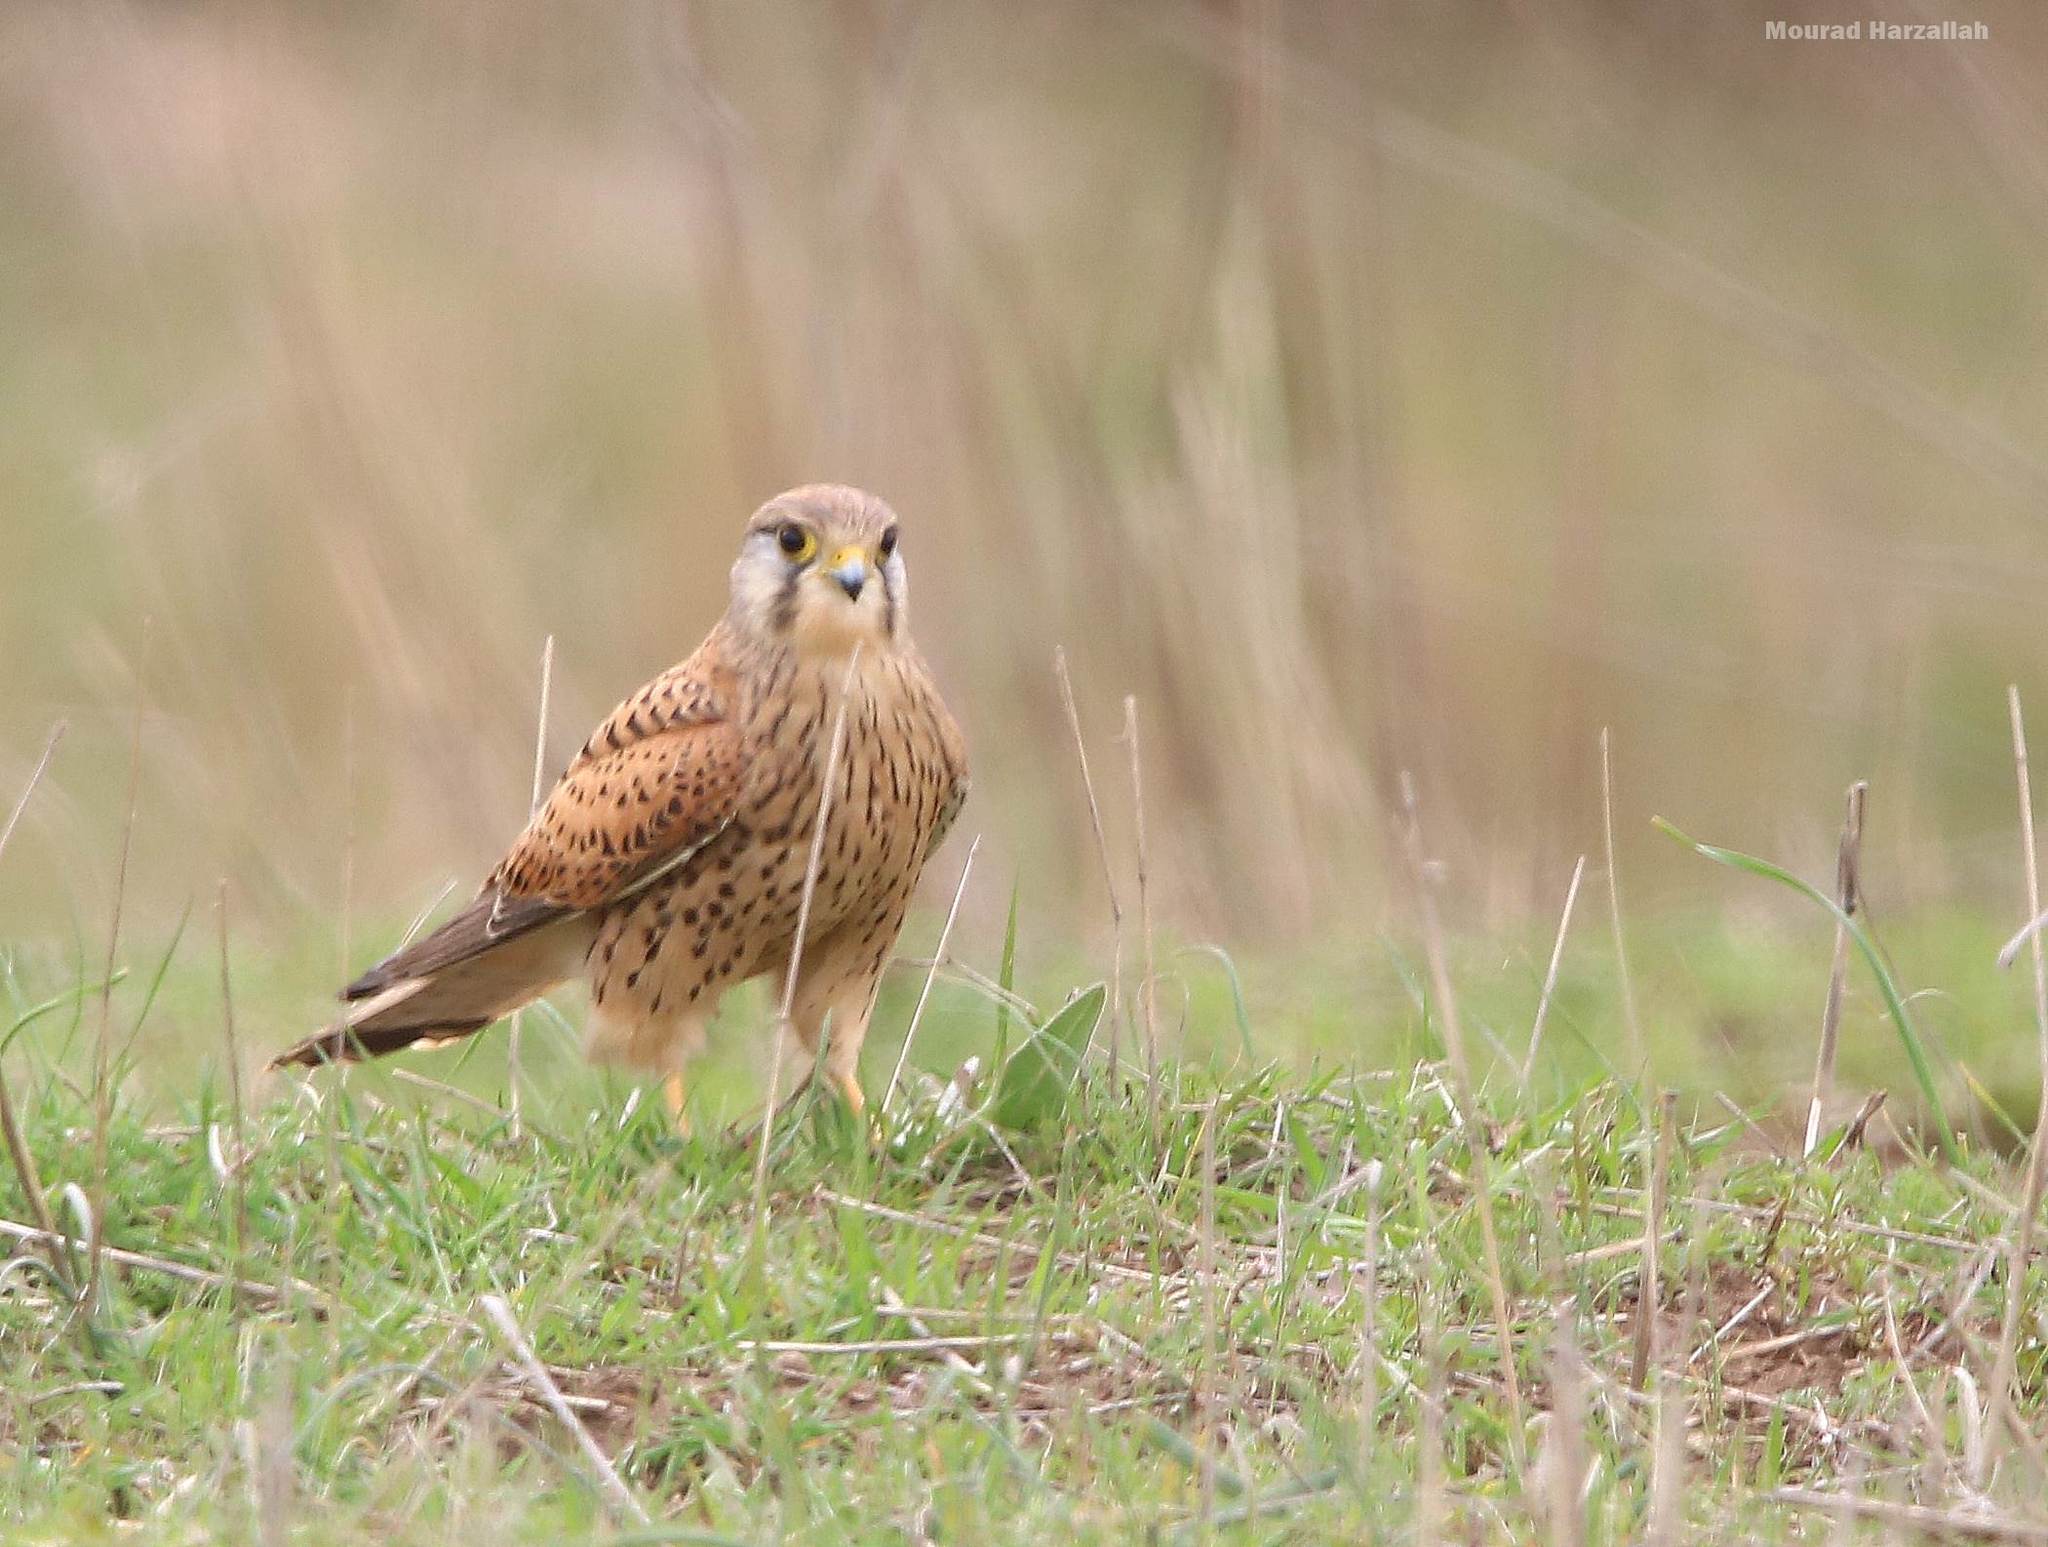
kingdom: Animalia
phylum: Chordata
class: Aves
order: Falconiformes
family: Falconidae
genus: Falco
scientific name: Falco tinnunculus
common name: Common kestrel
